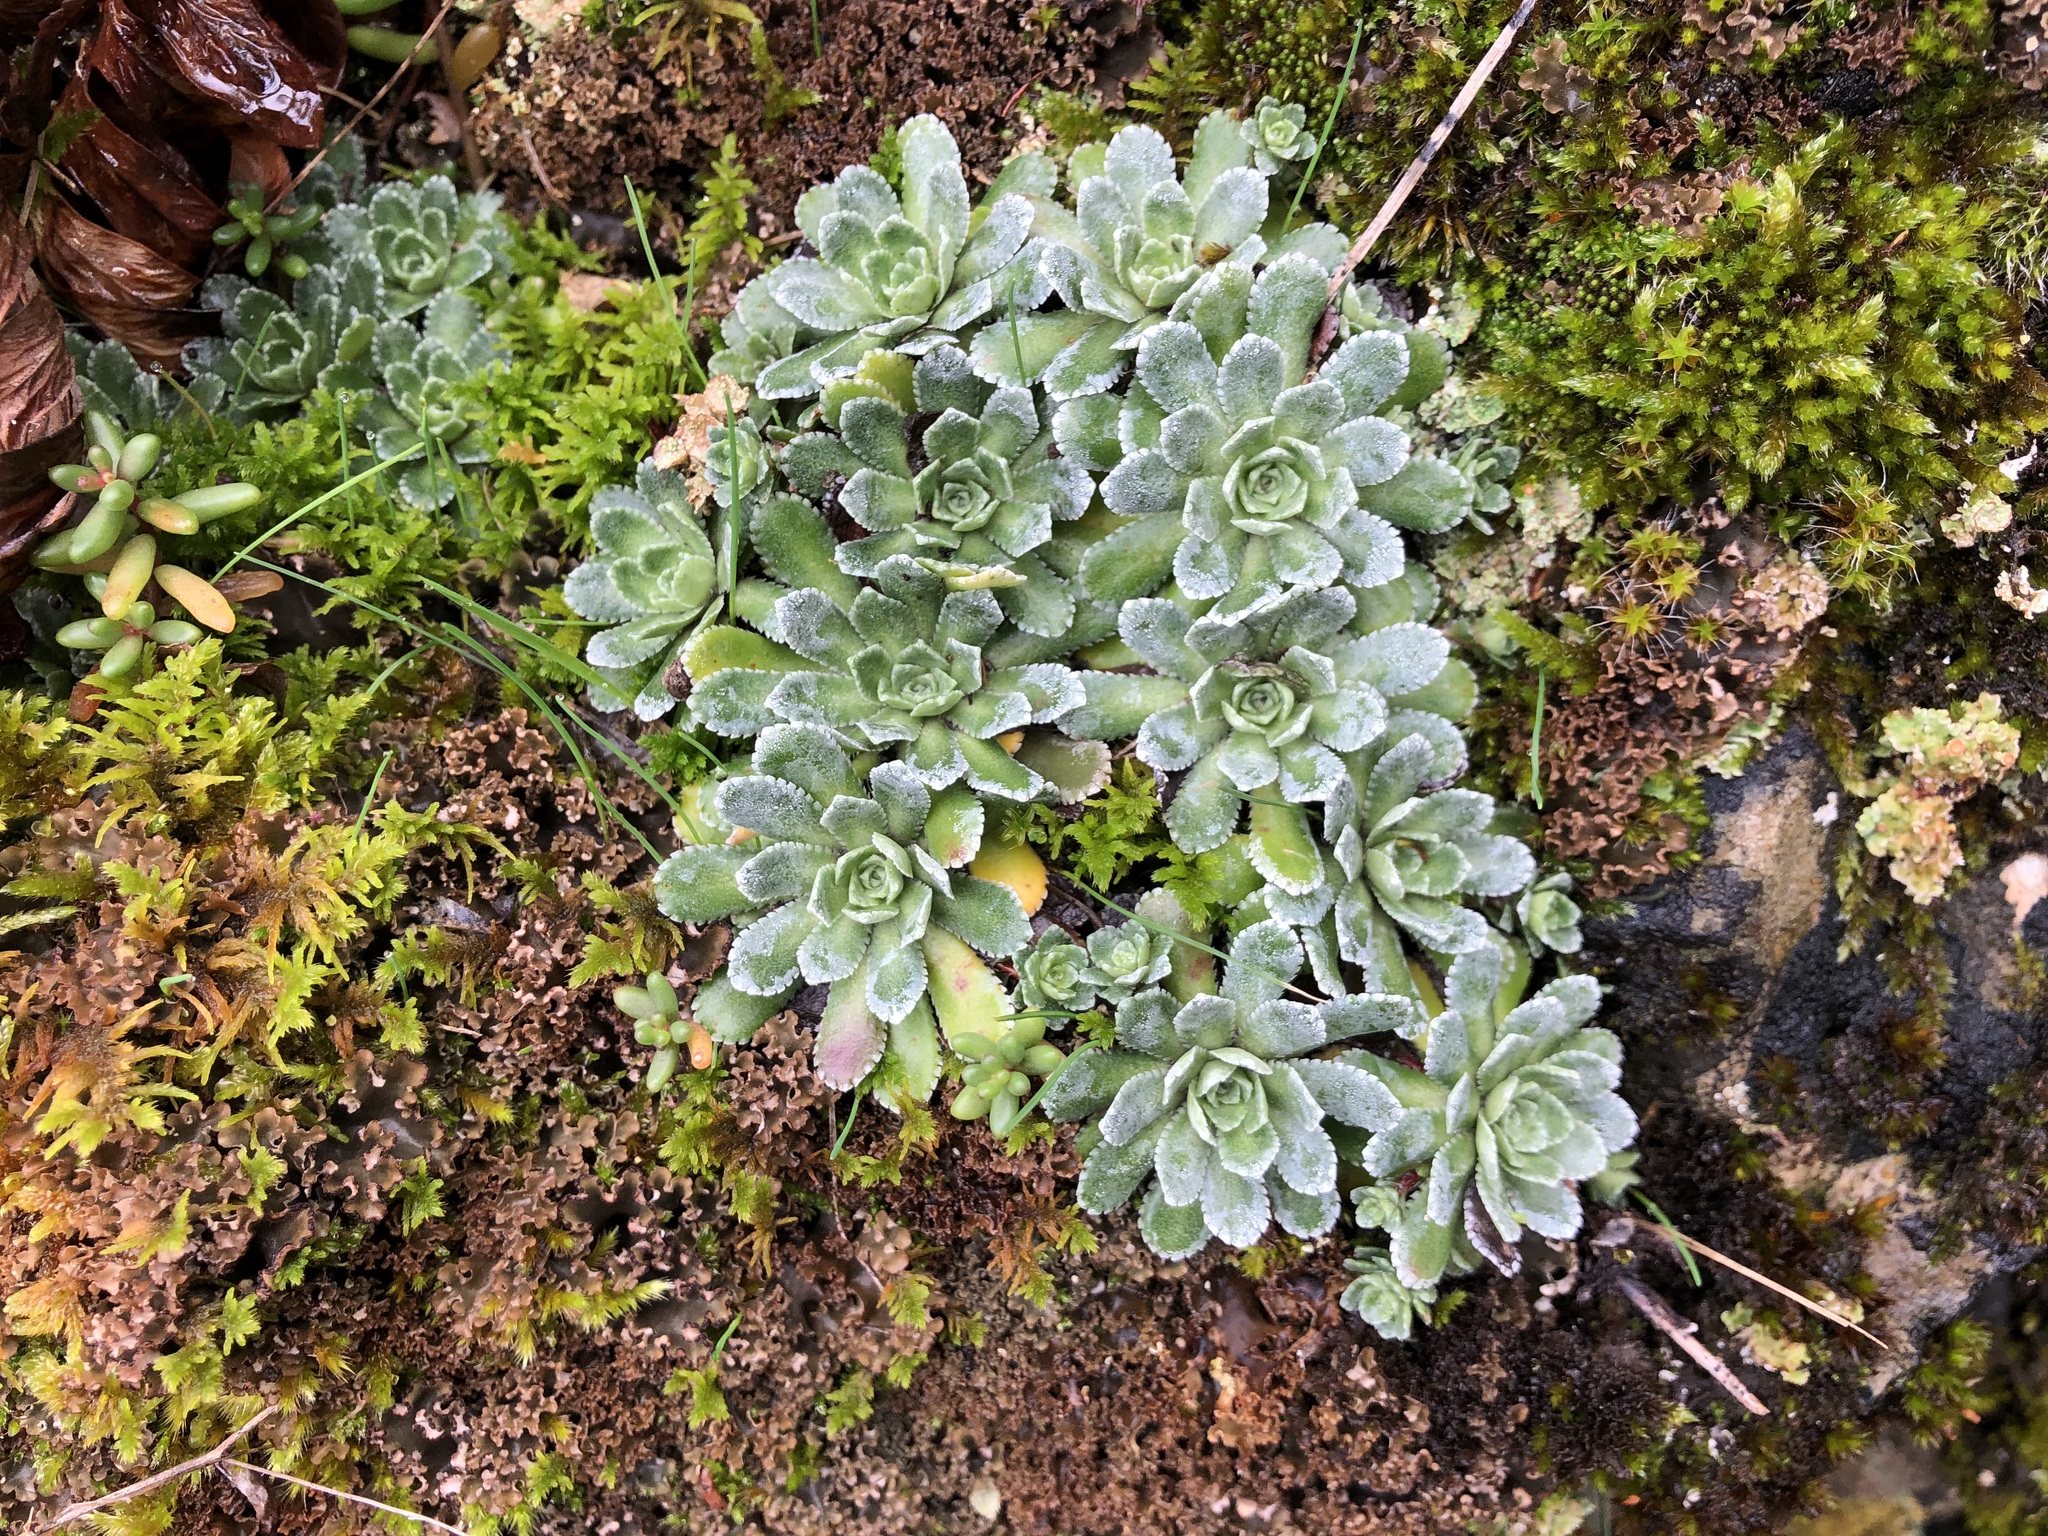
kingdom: Plantae
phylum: Tracheophyta
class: Magnoliopsida
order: Saxifragales
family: Saxifragaceae
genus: Saxifraga
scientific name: Saxifraga paniculata
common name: Livelong saxifrage
